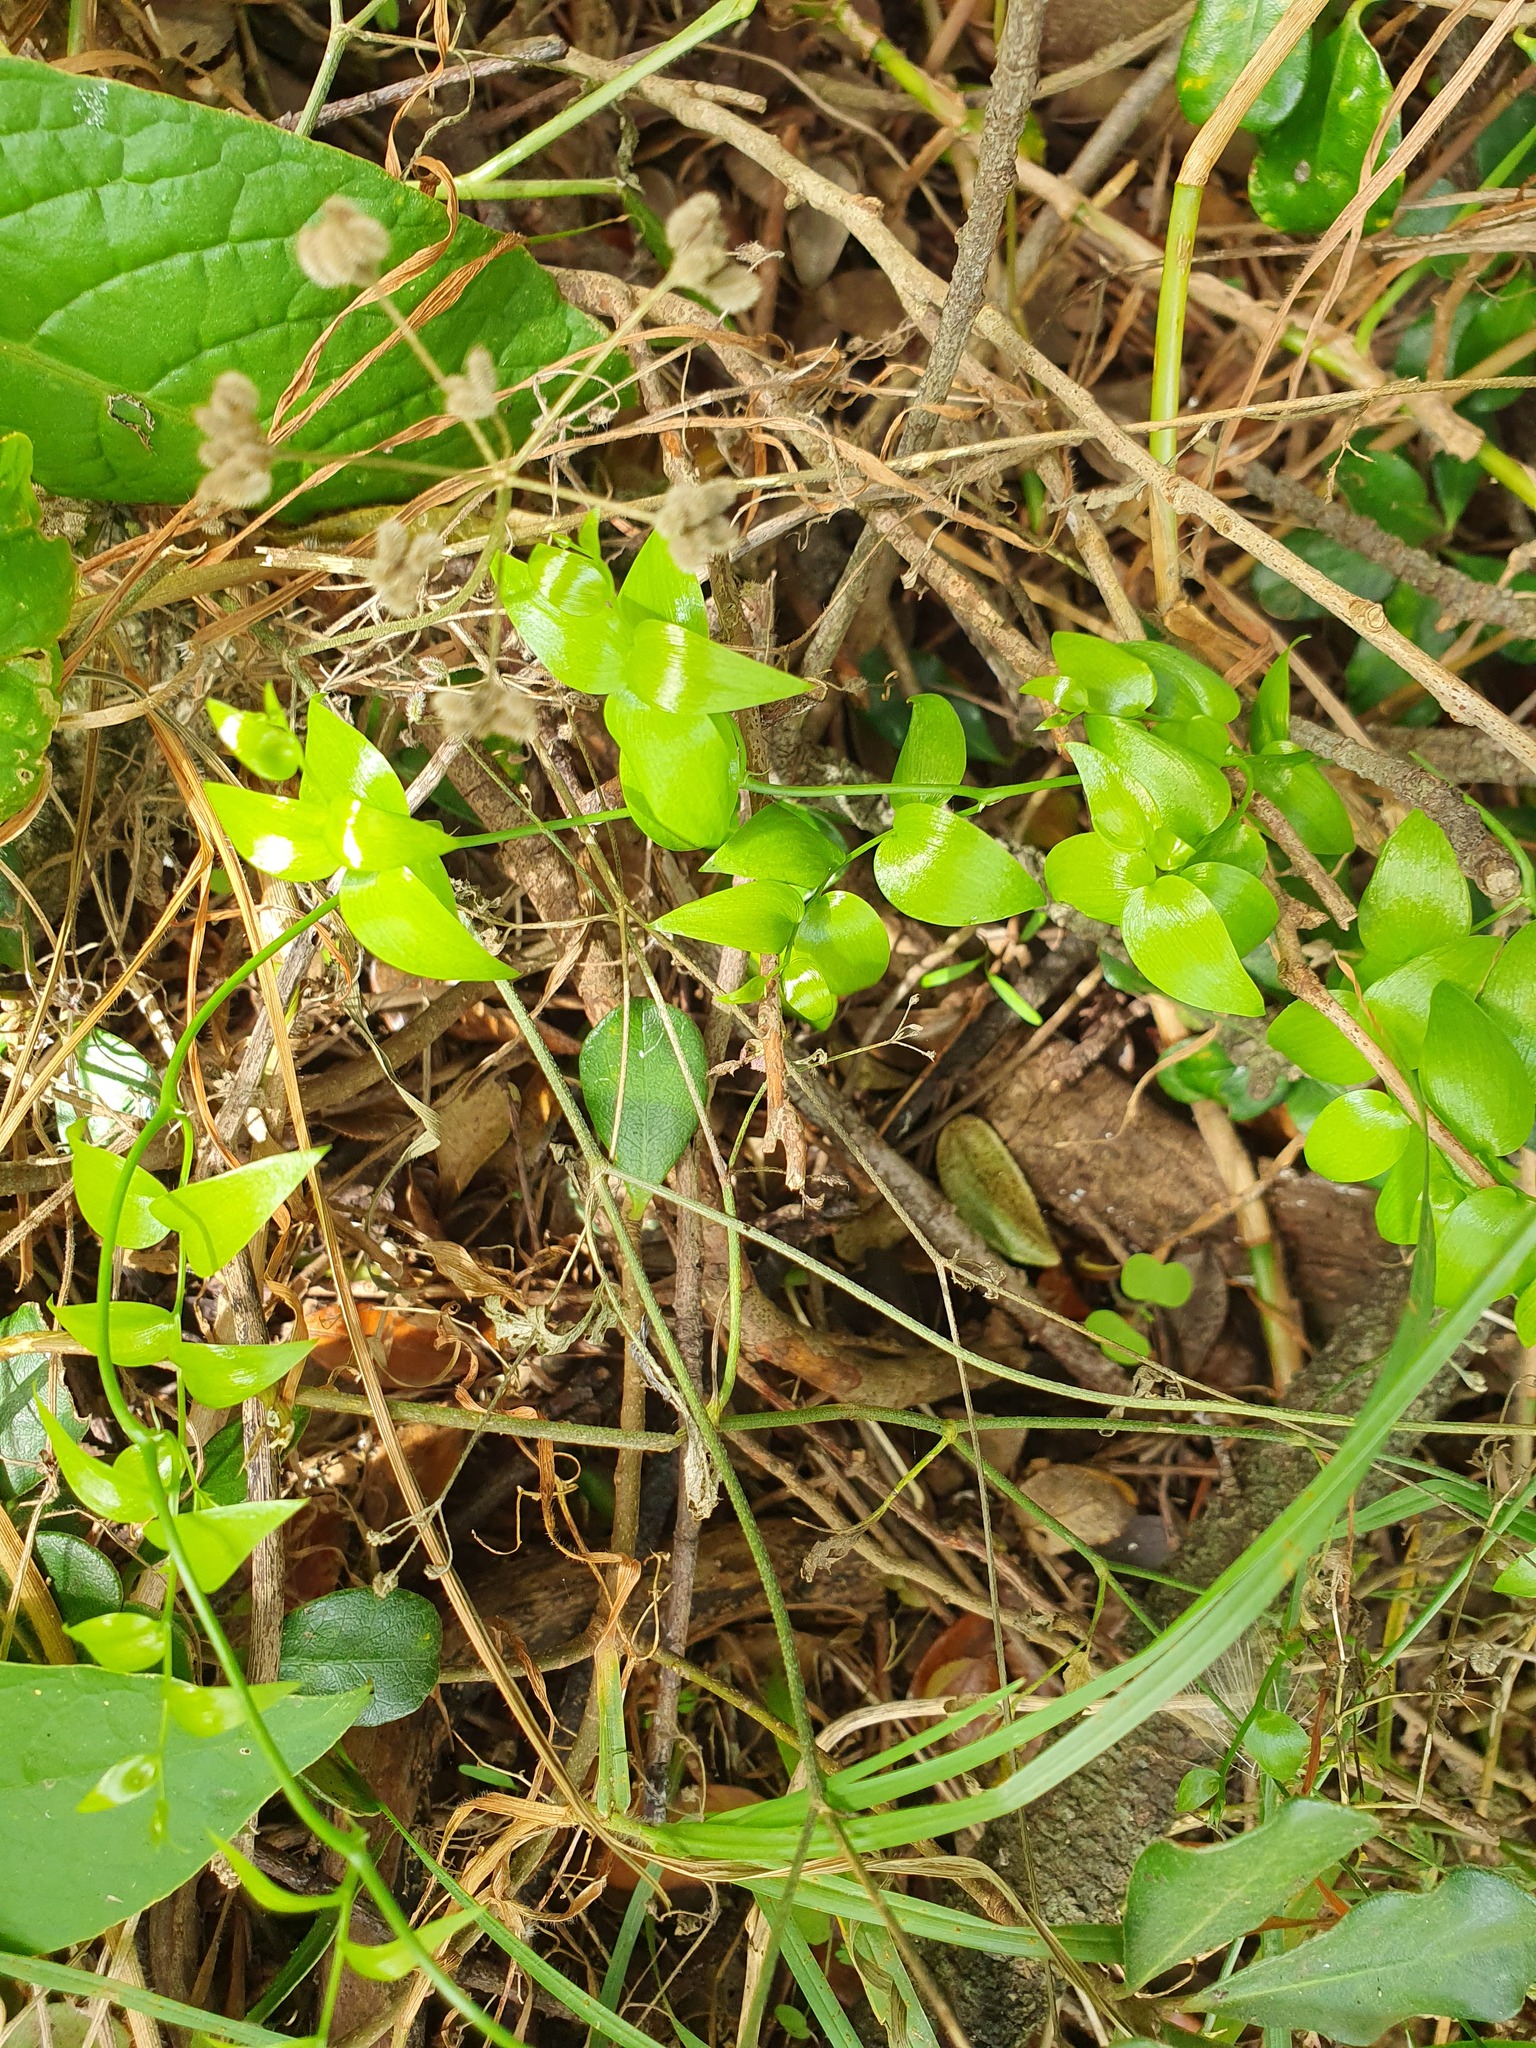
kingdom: Plantae
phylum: Tracheophyta
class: Liliopsida
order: Asparagales
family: Asparagaceae
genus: Asparagus
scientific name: Asparagus asparagoides
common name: African asparagus fern
